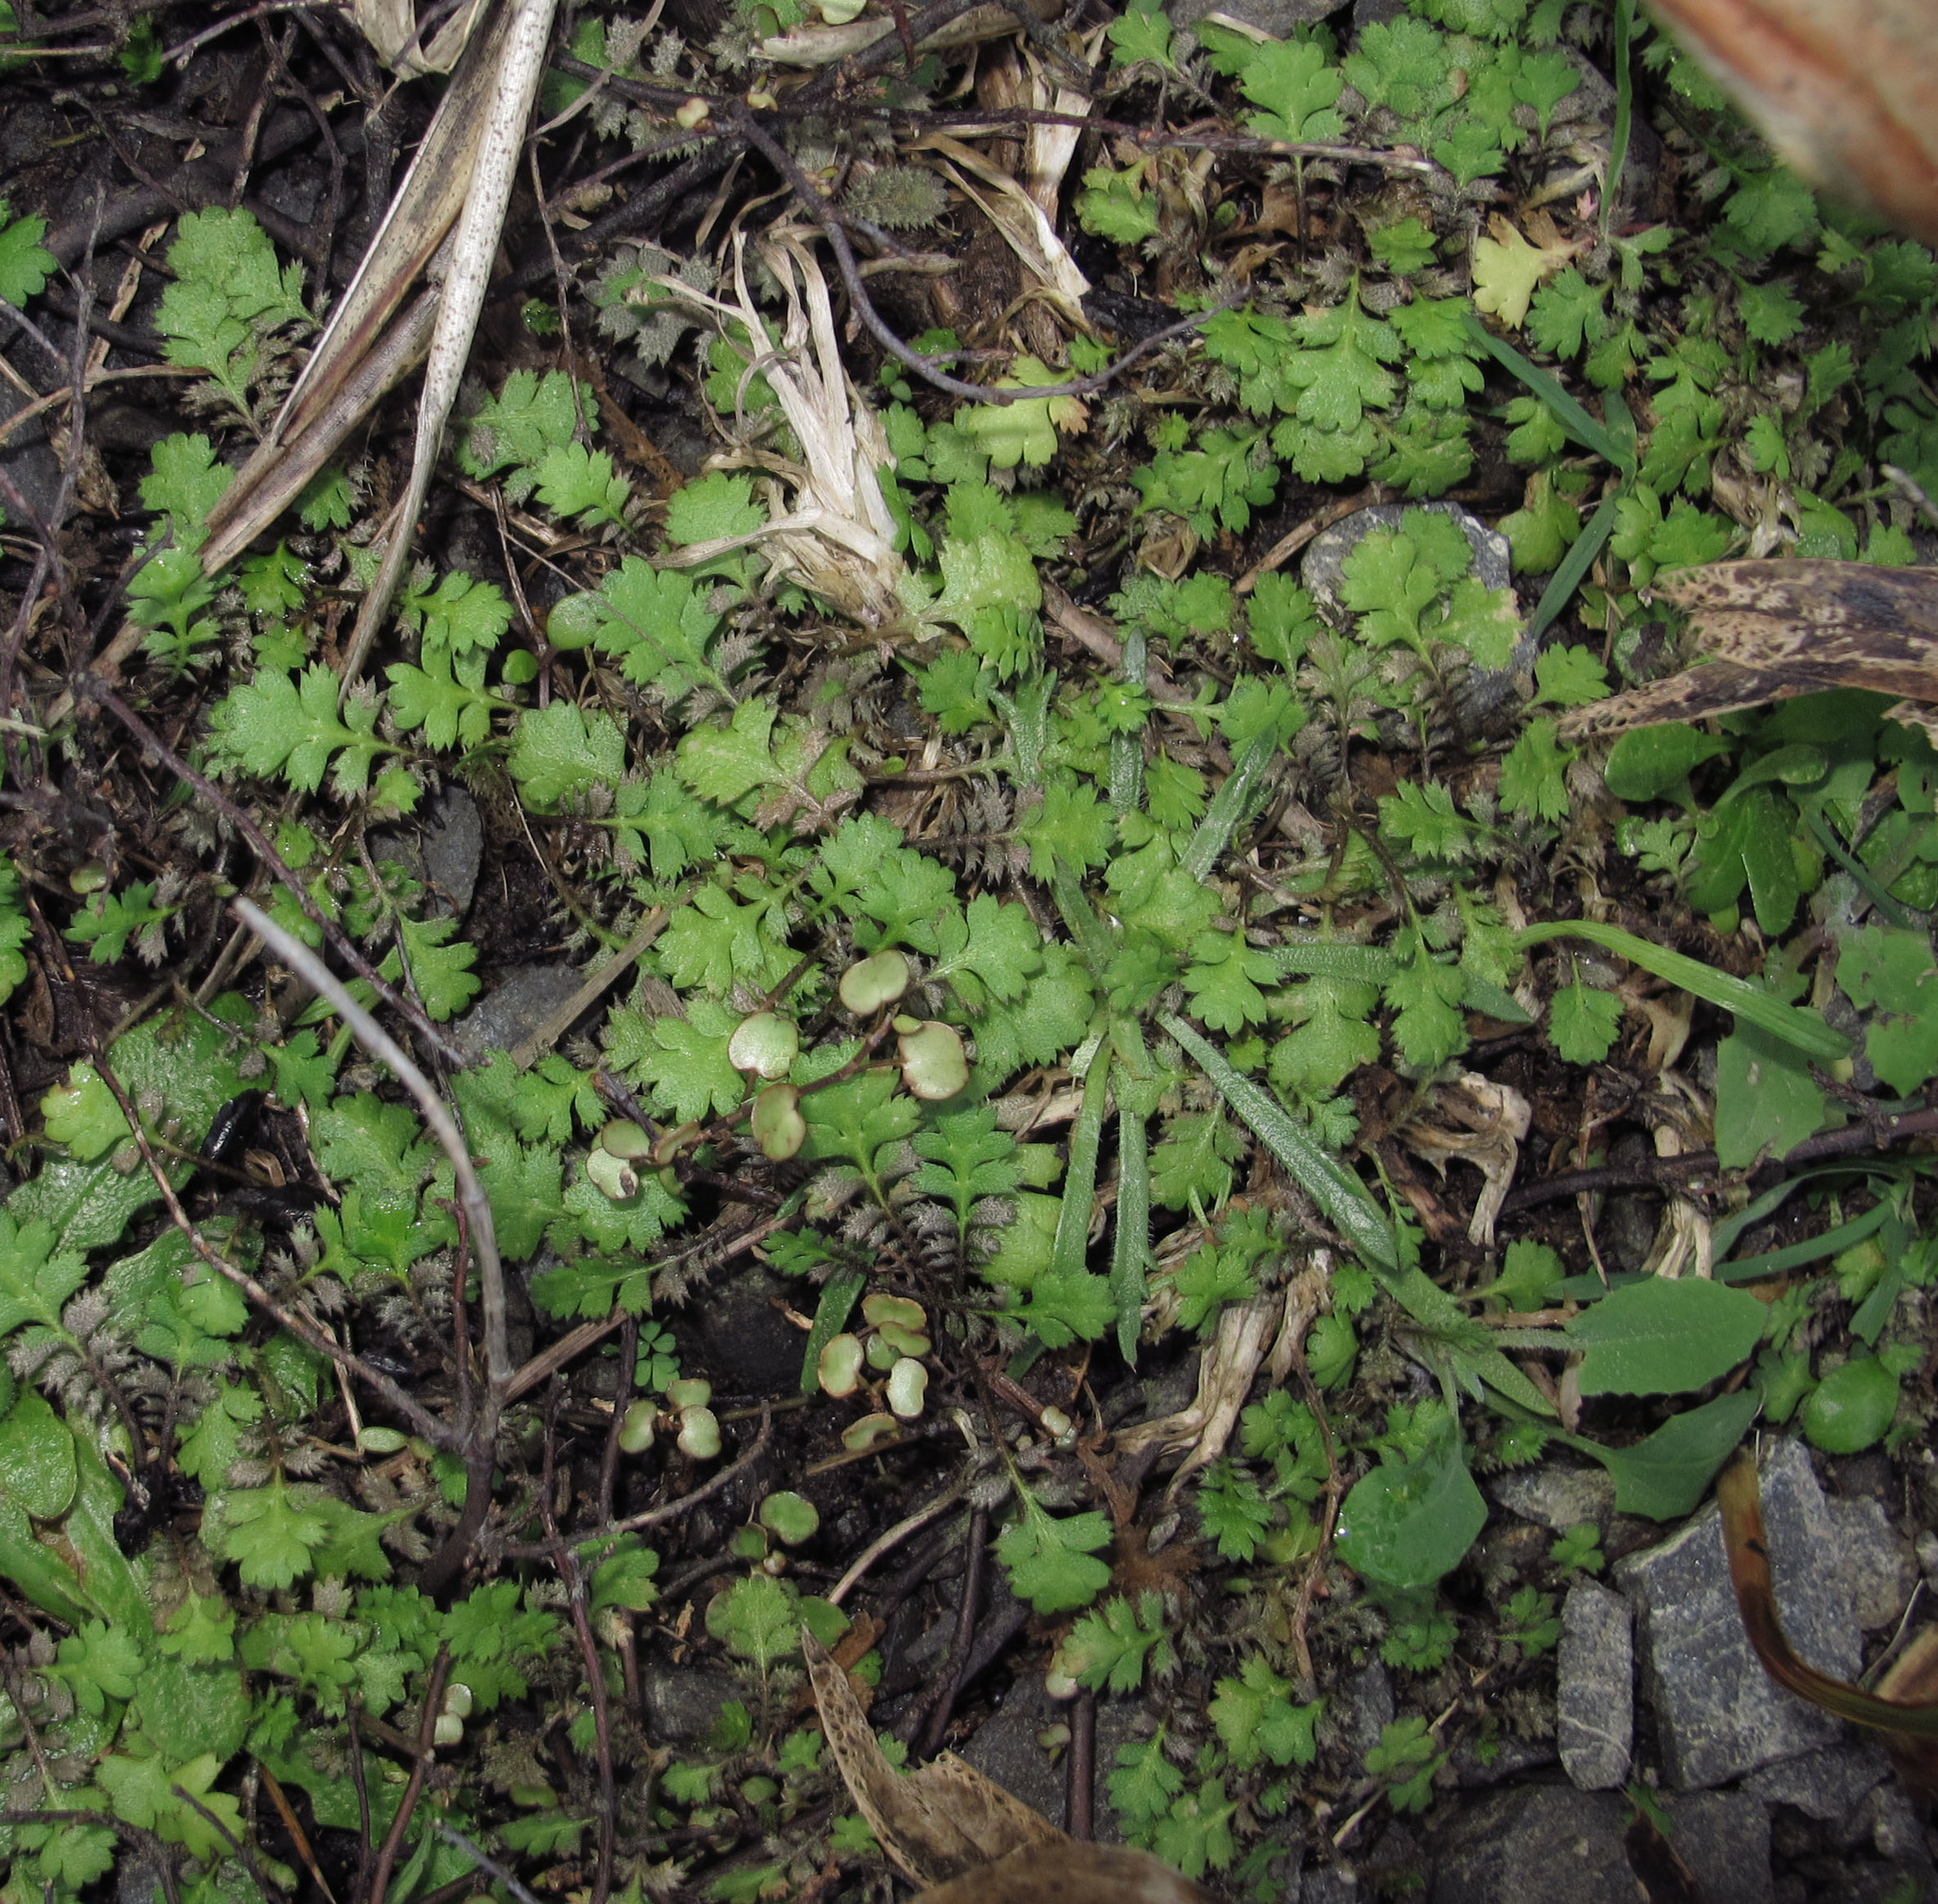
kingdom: Plantae
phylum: Tracheophyta
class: Magnoliopsida
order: Asterales
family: Asteraceae
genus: Leptinella
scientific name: Leptinella squalida
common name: New zealand brass-buttons
